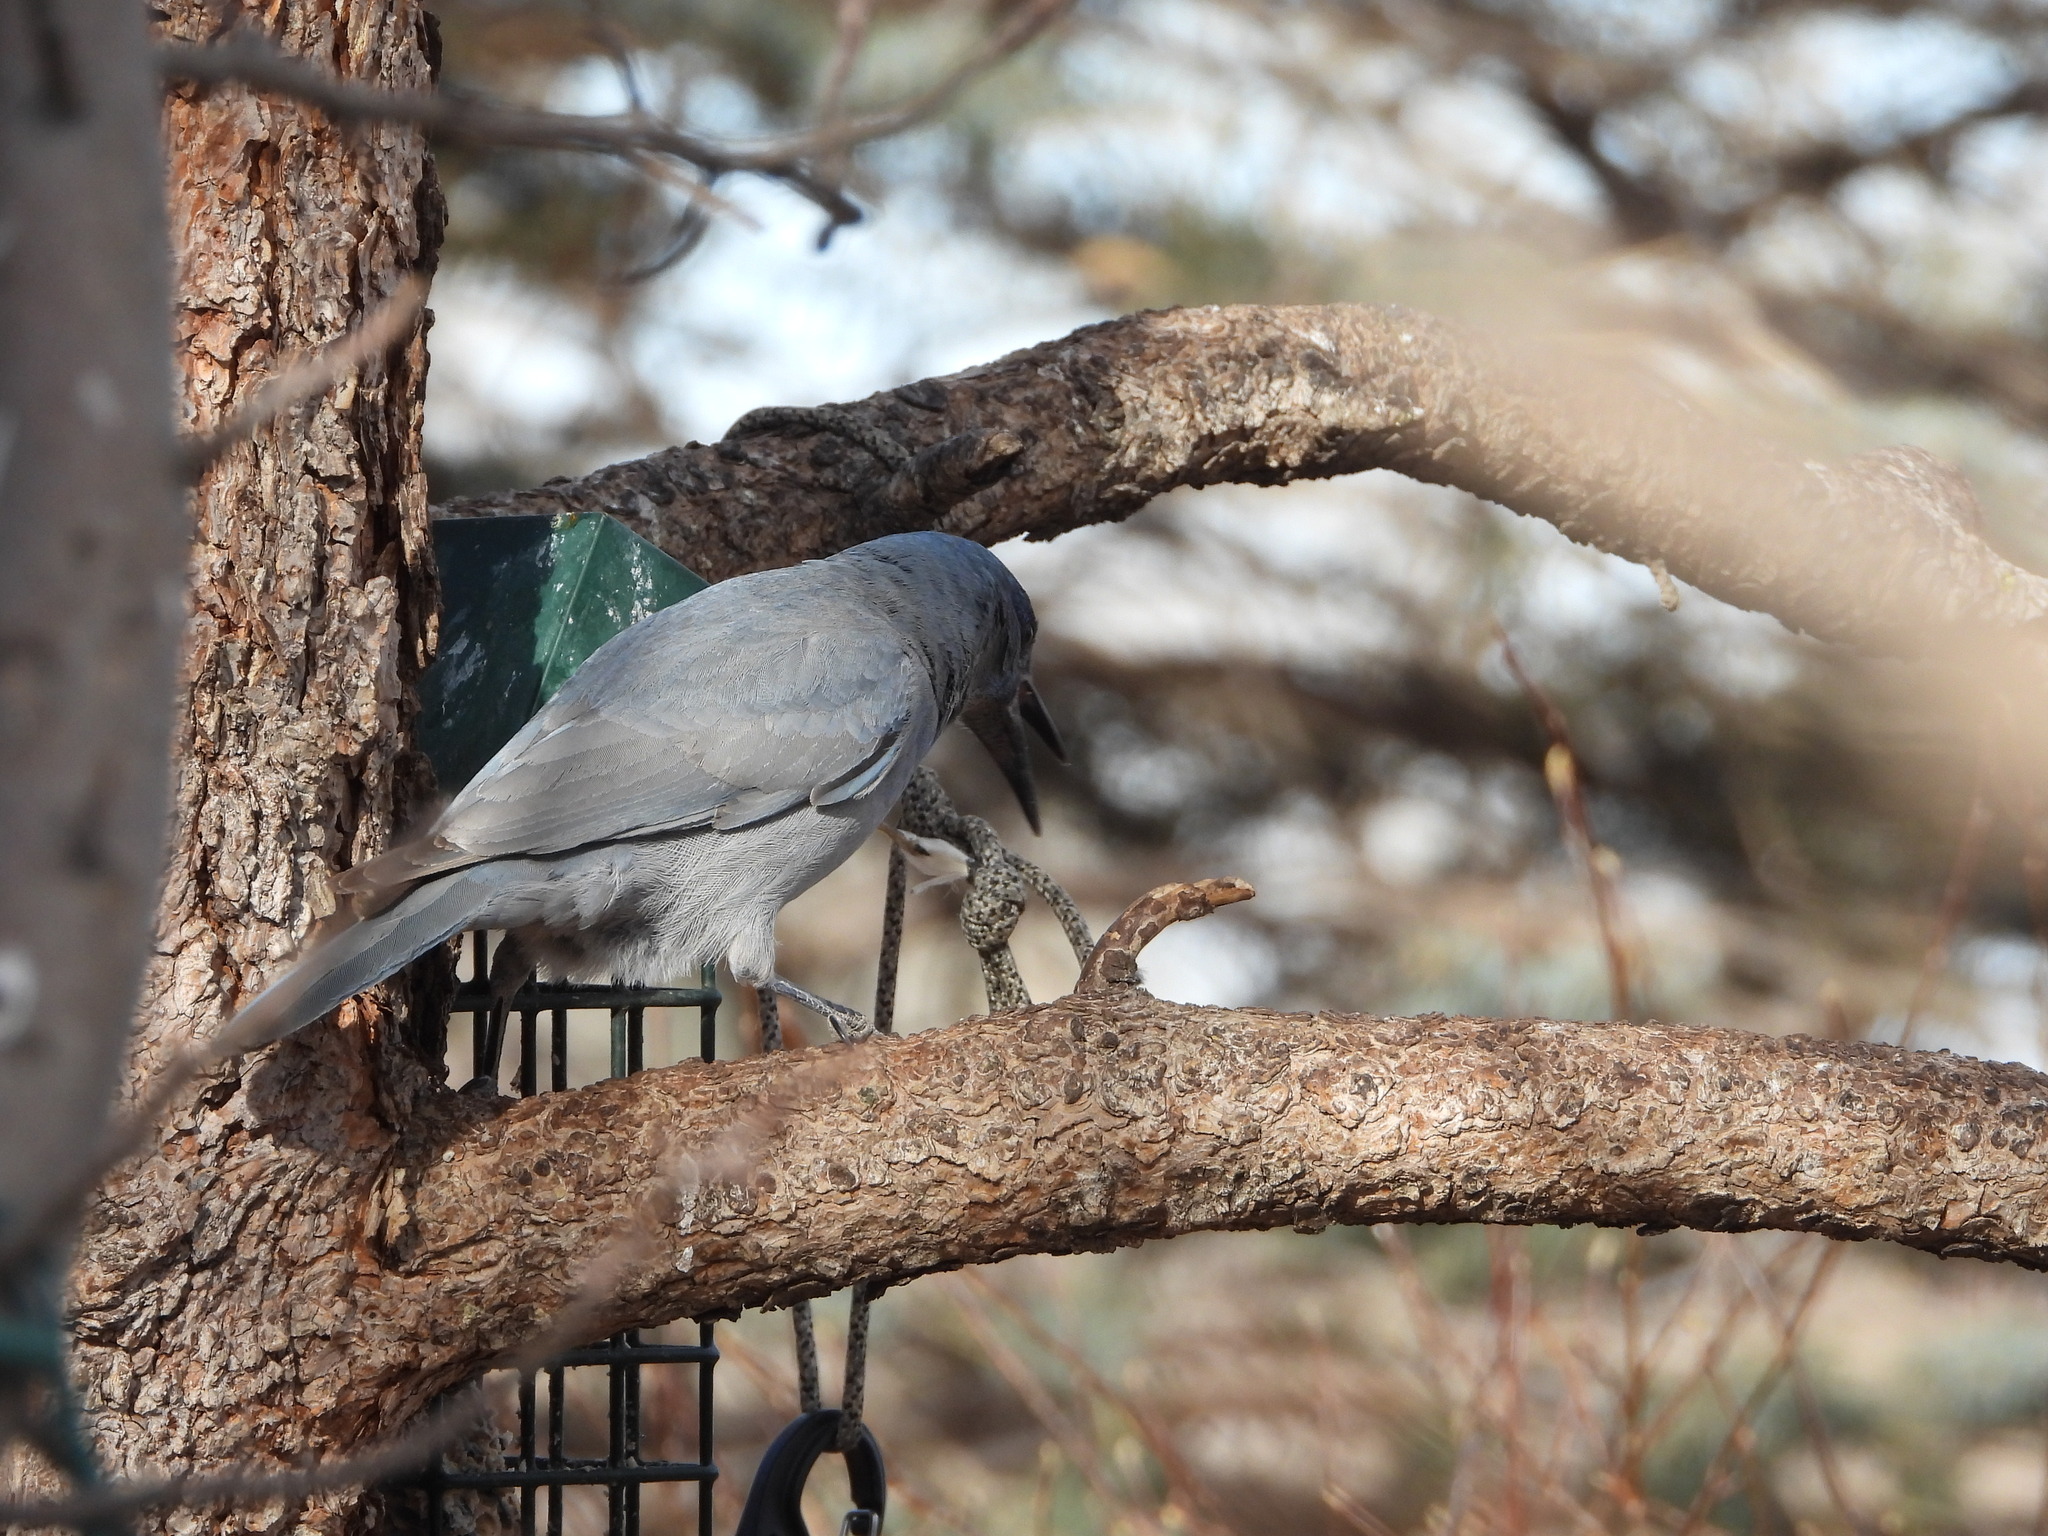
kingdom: Animalia
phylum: Chordata
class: Aves
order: Passeriformes
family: Corvidae
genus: Gymnorhinus
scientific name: Gymnorhinus cyanocephalus
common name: Pinyon jay
